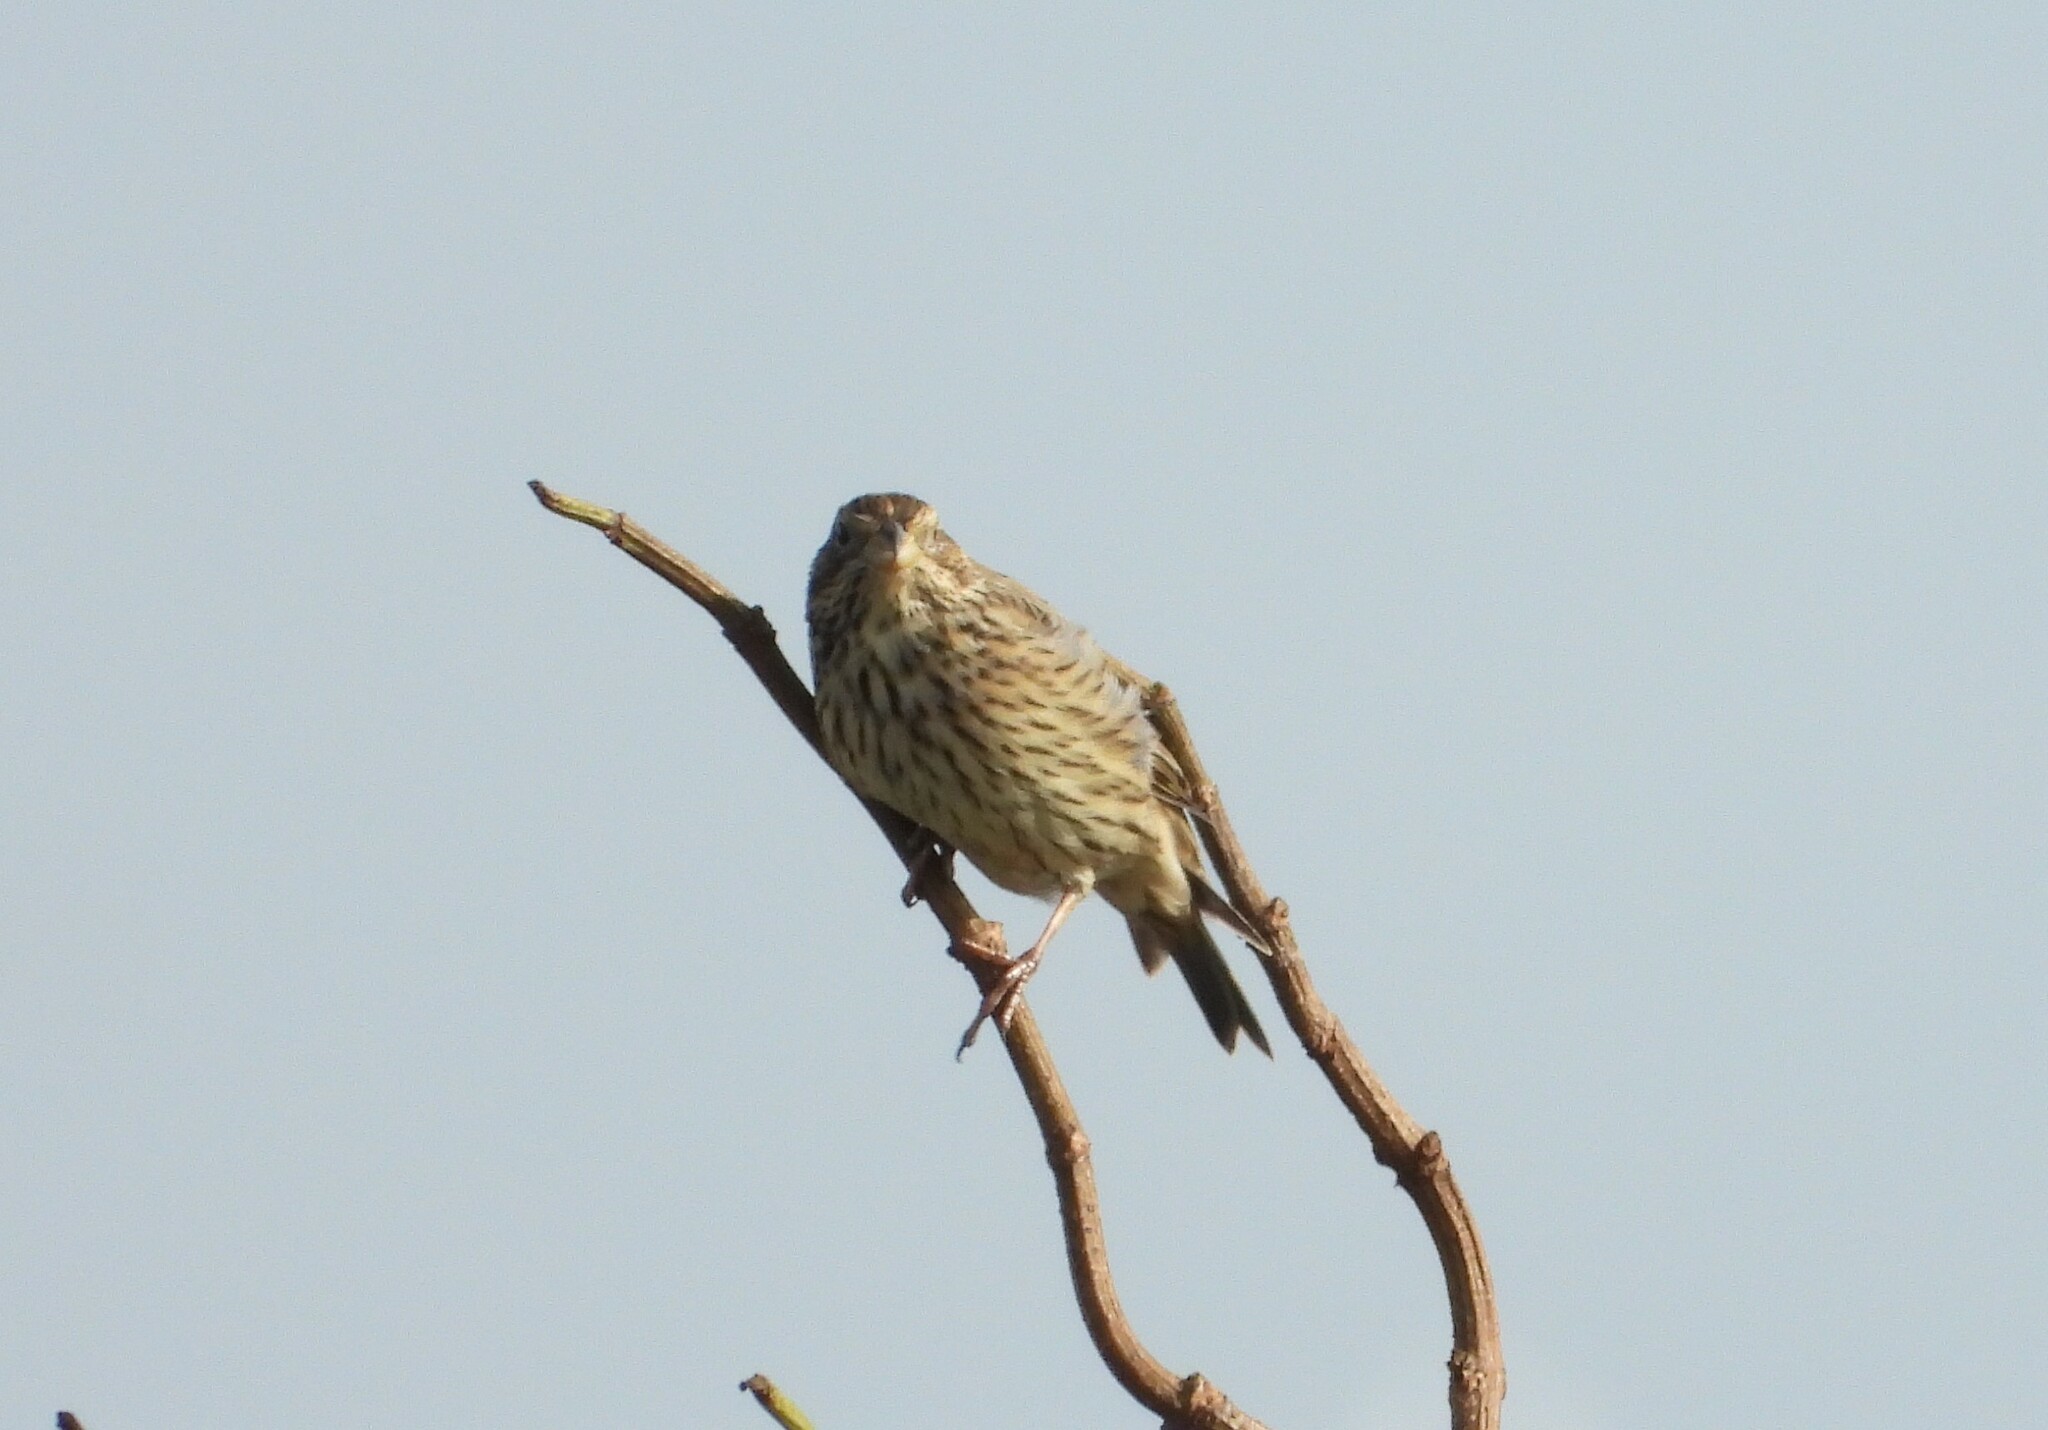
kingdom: Animalia
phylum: Chordata
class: Aves
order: Passeriformes
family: Emberizidae
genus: Emberiza
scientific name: Emberiza calandra
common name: Corn bunting
